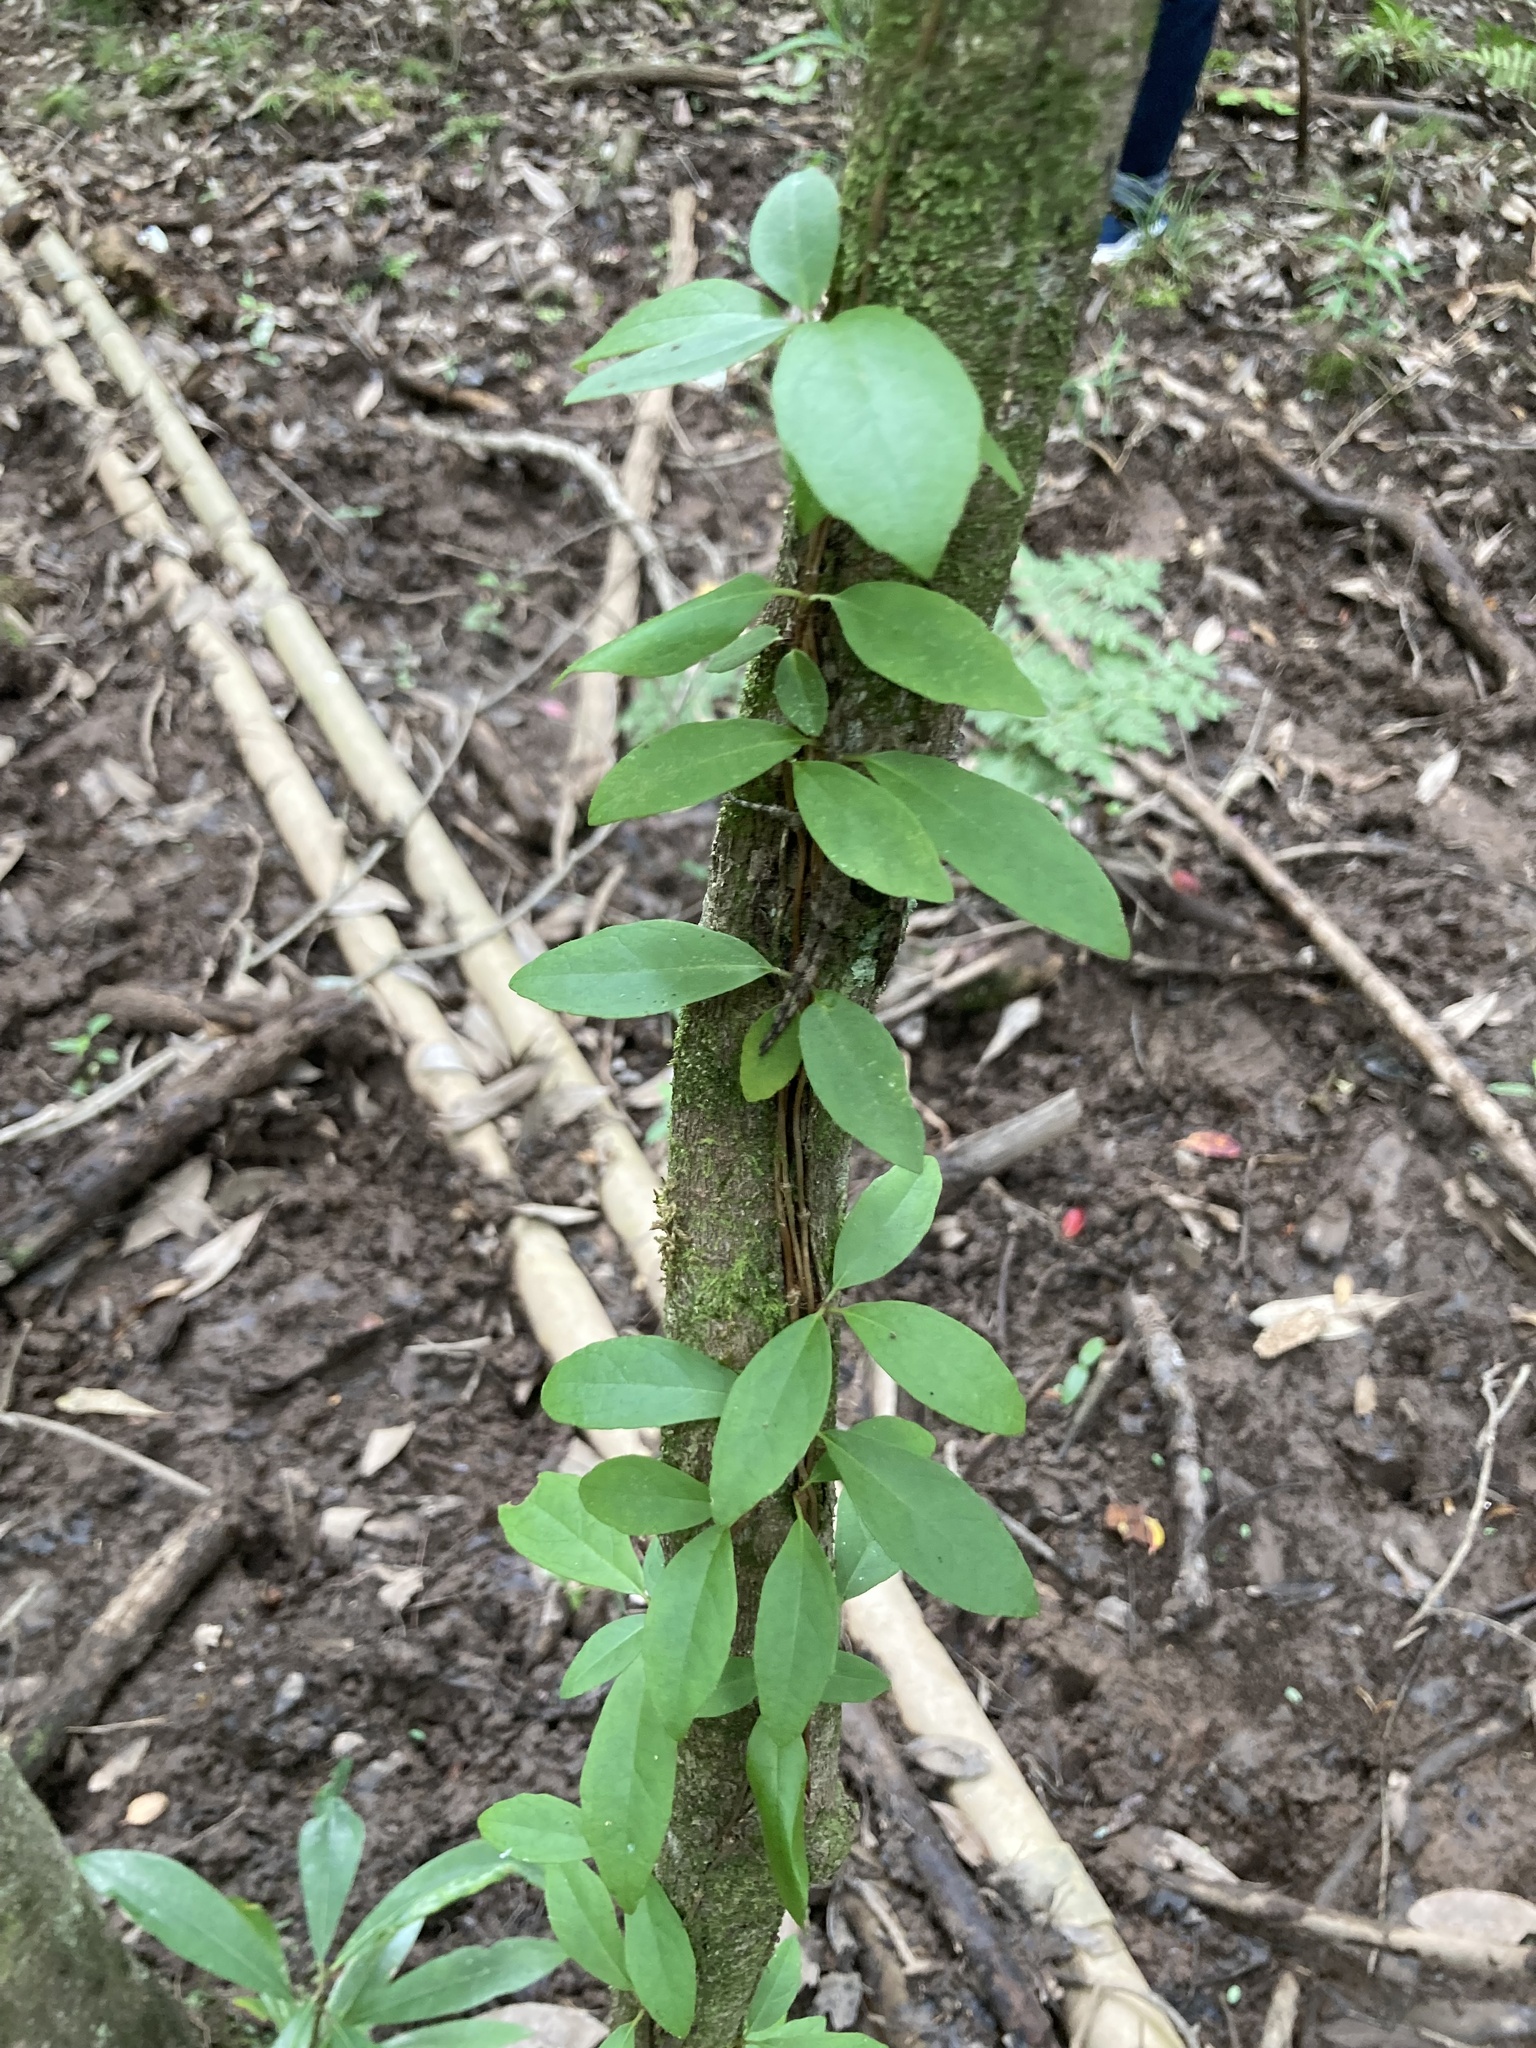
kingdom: Plantae
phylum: Tracheophyta
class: Magnoliopsida
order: Cornales
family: Hydrangeaceae
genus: Hydrangea
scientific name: Hydrangea barbara
